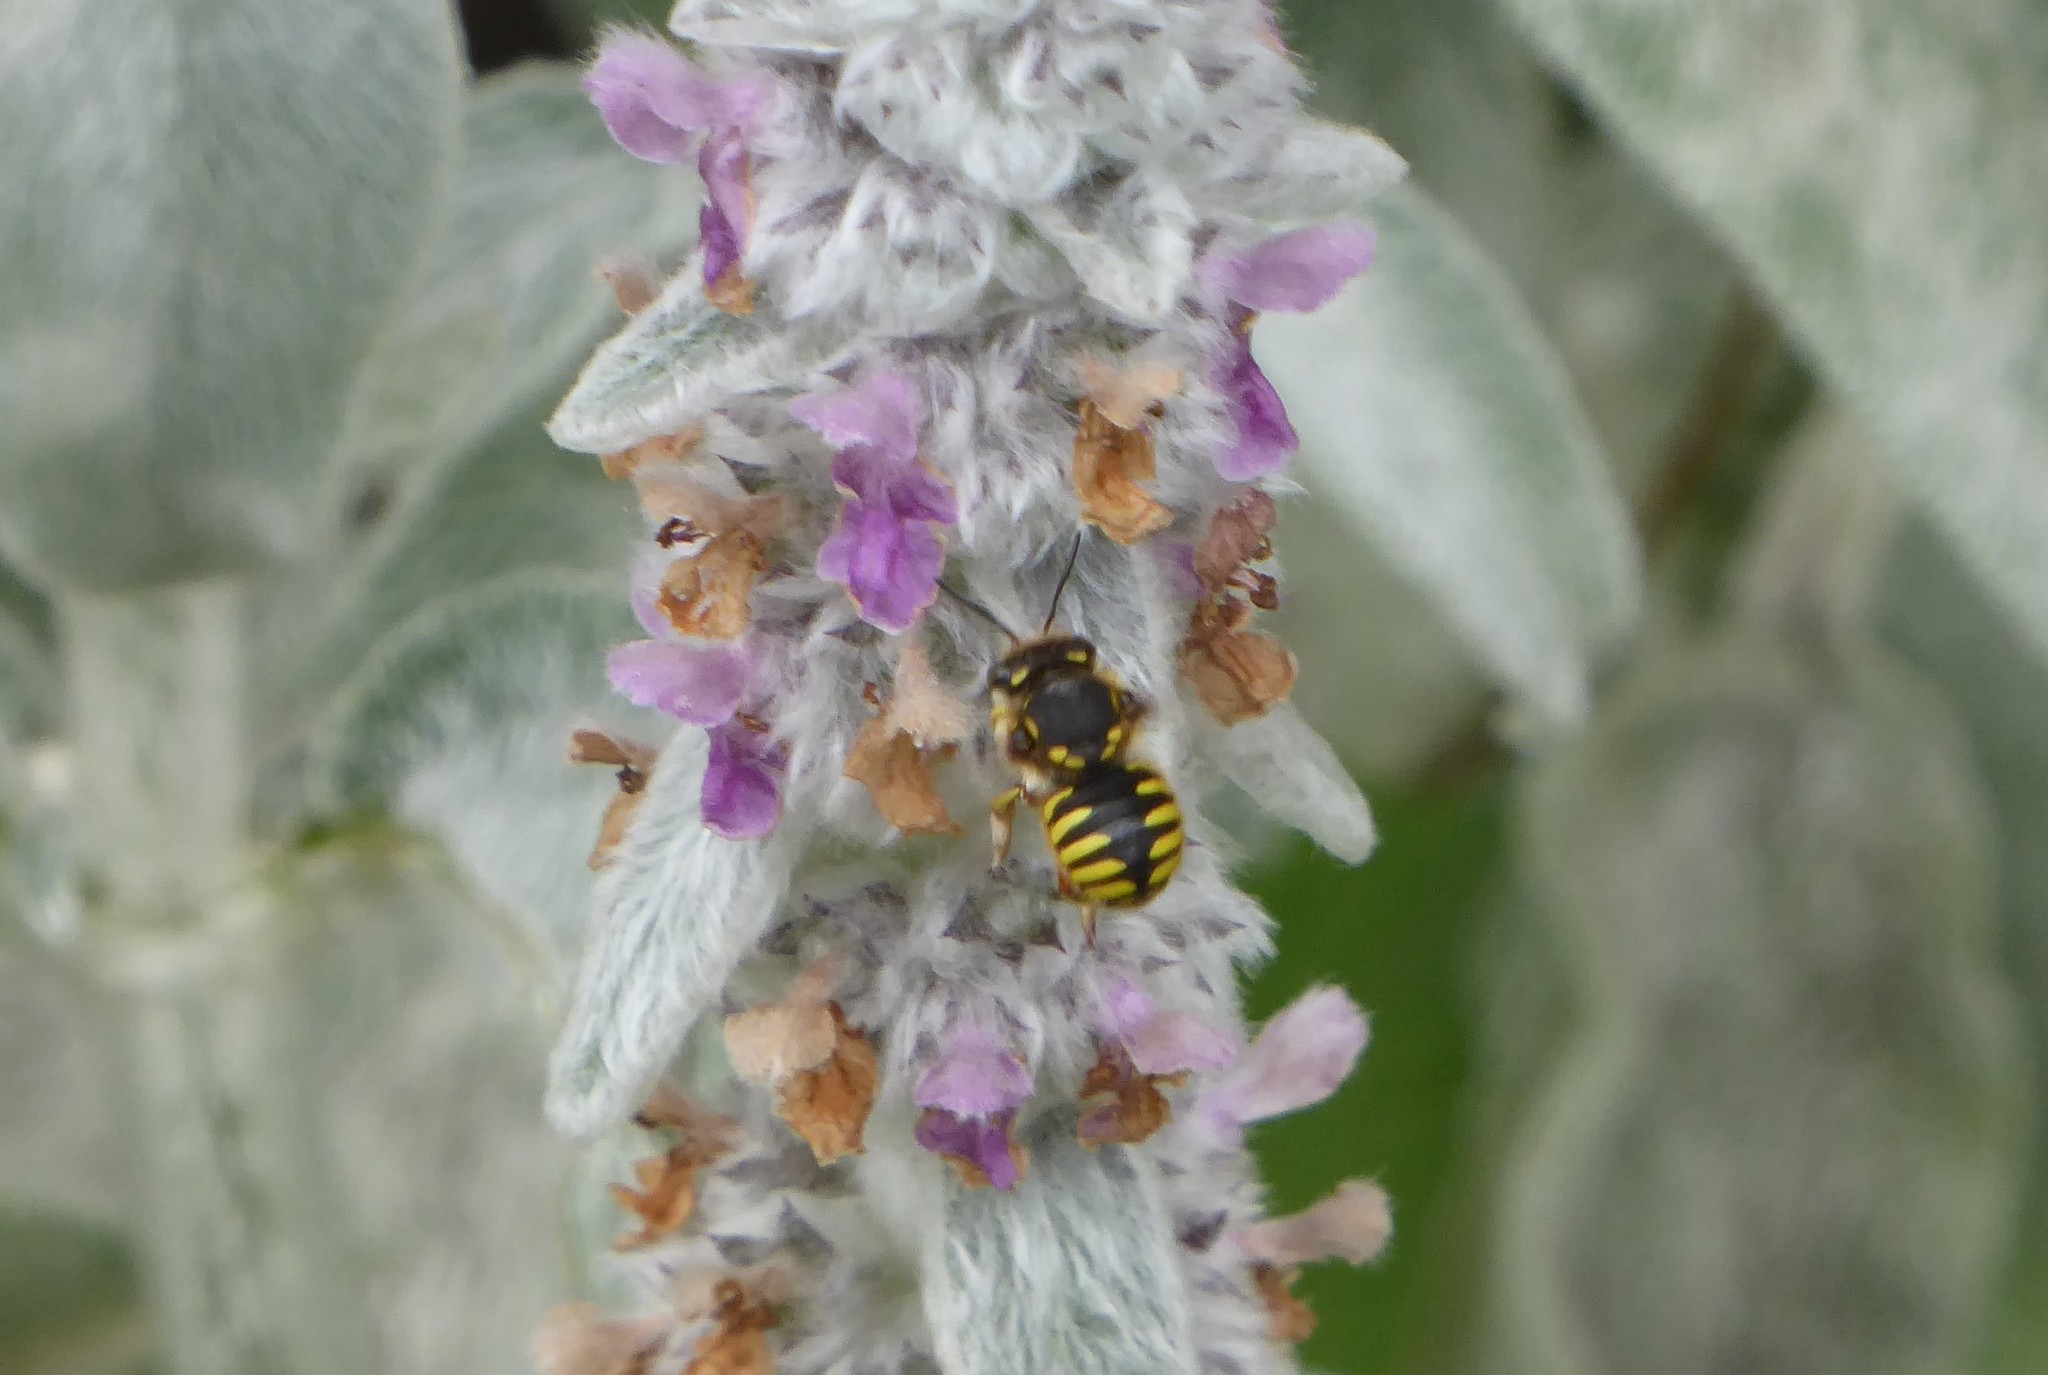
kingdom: Animalia
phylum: Arthropoda
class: Insecta
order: Hymenoptera
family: Megachilidae
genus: Anthidium
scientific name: Anthidium manicatum
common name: Wool carder bee
